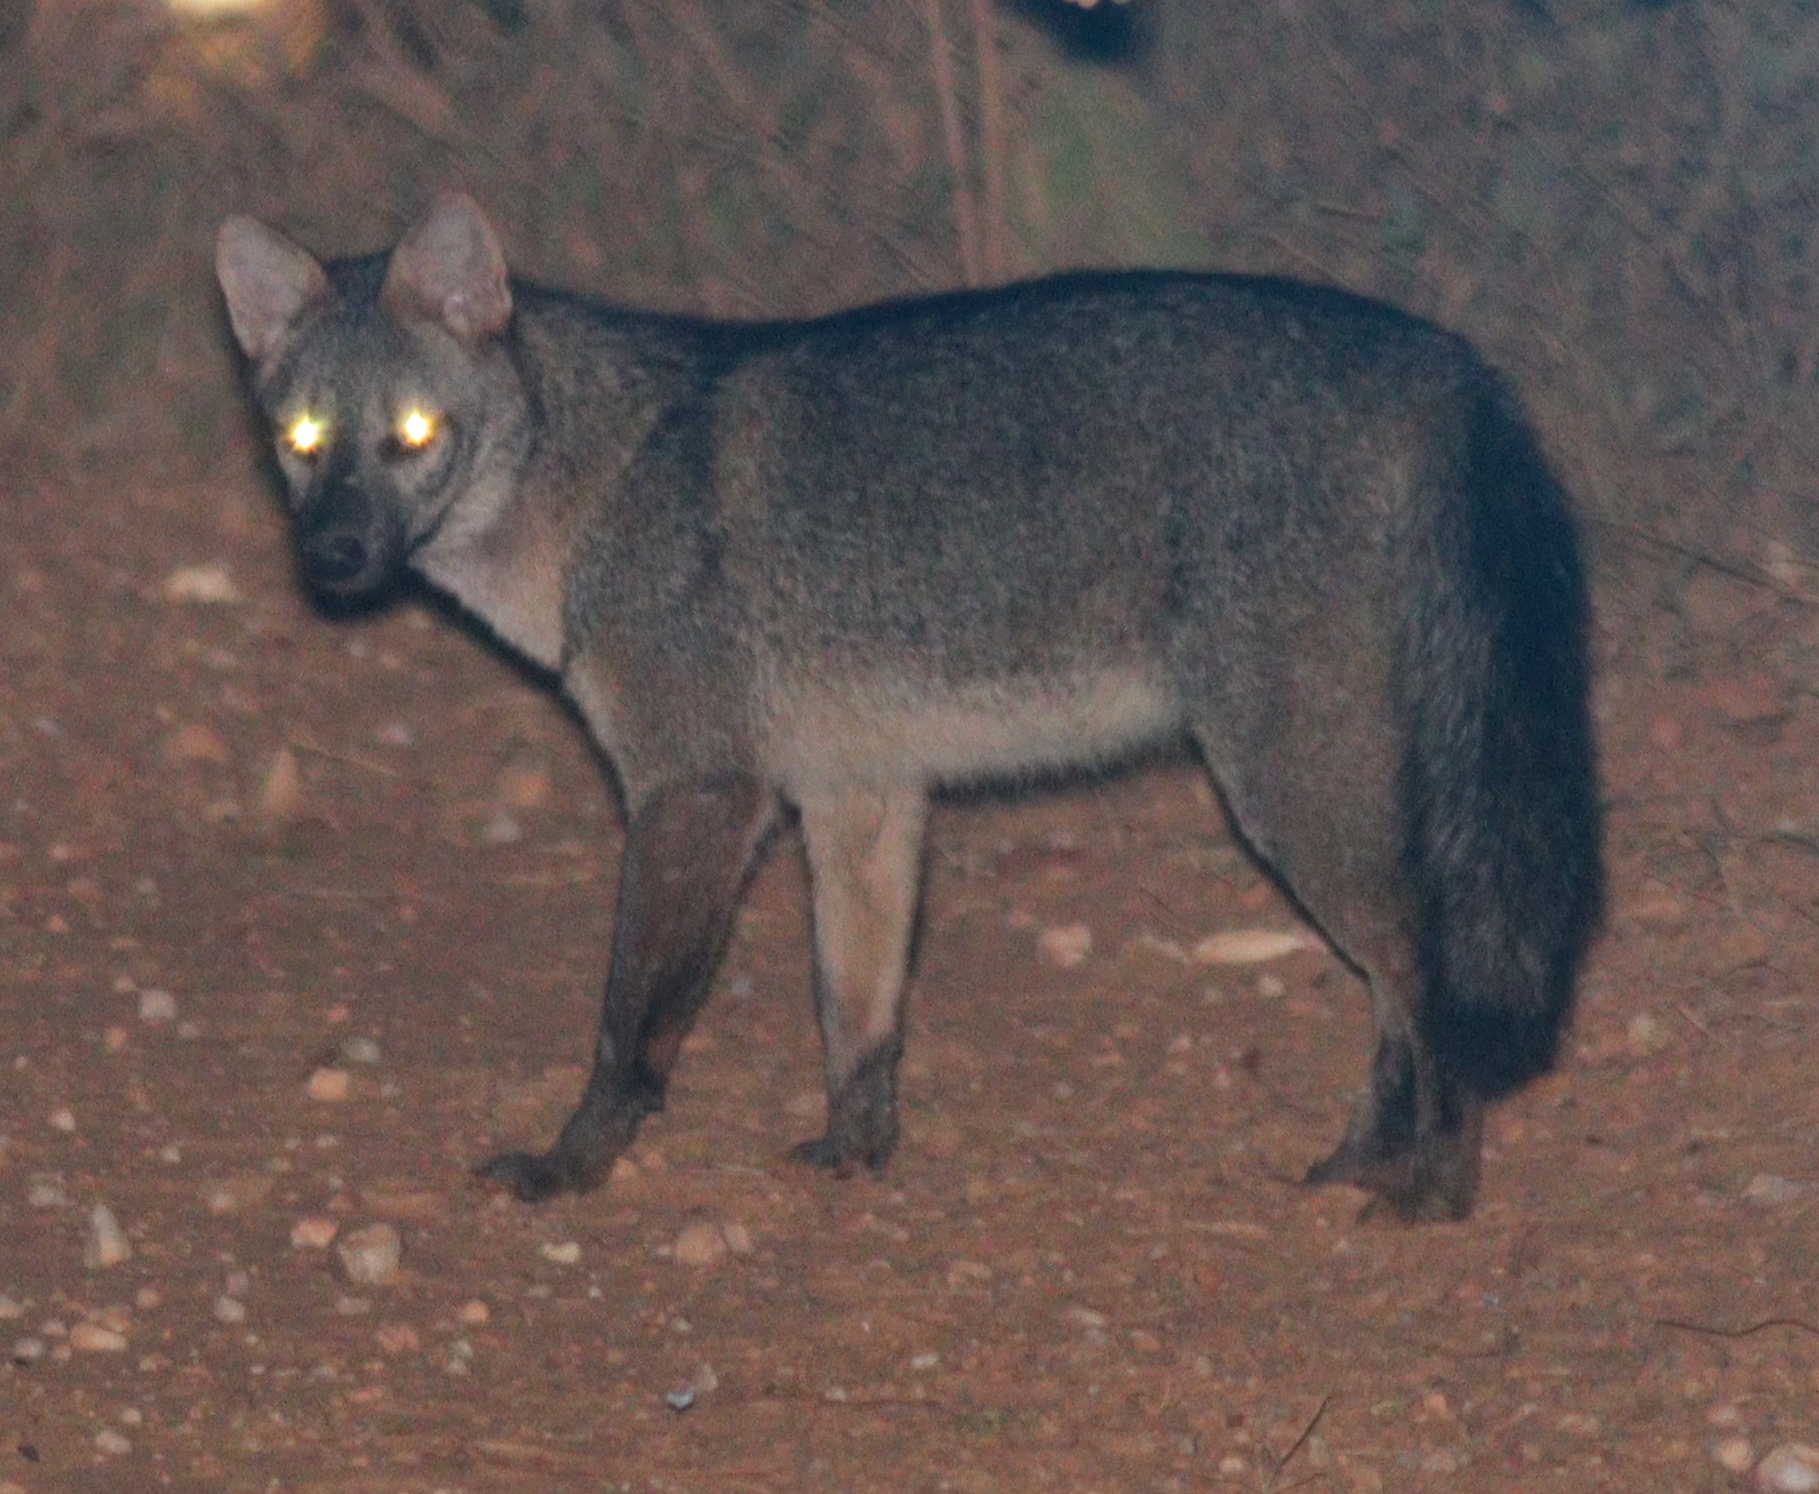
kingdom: Animalia
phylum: Chordata
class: Mammalia
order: Carnivora
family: Canidae
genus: Cerdocyon
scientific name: Cerdocyon thous
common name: Crab-eating fox
